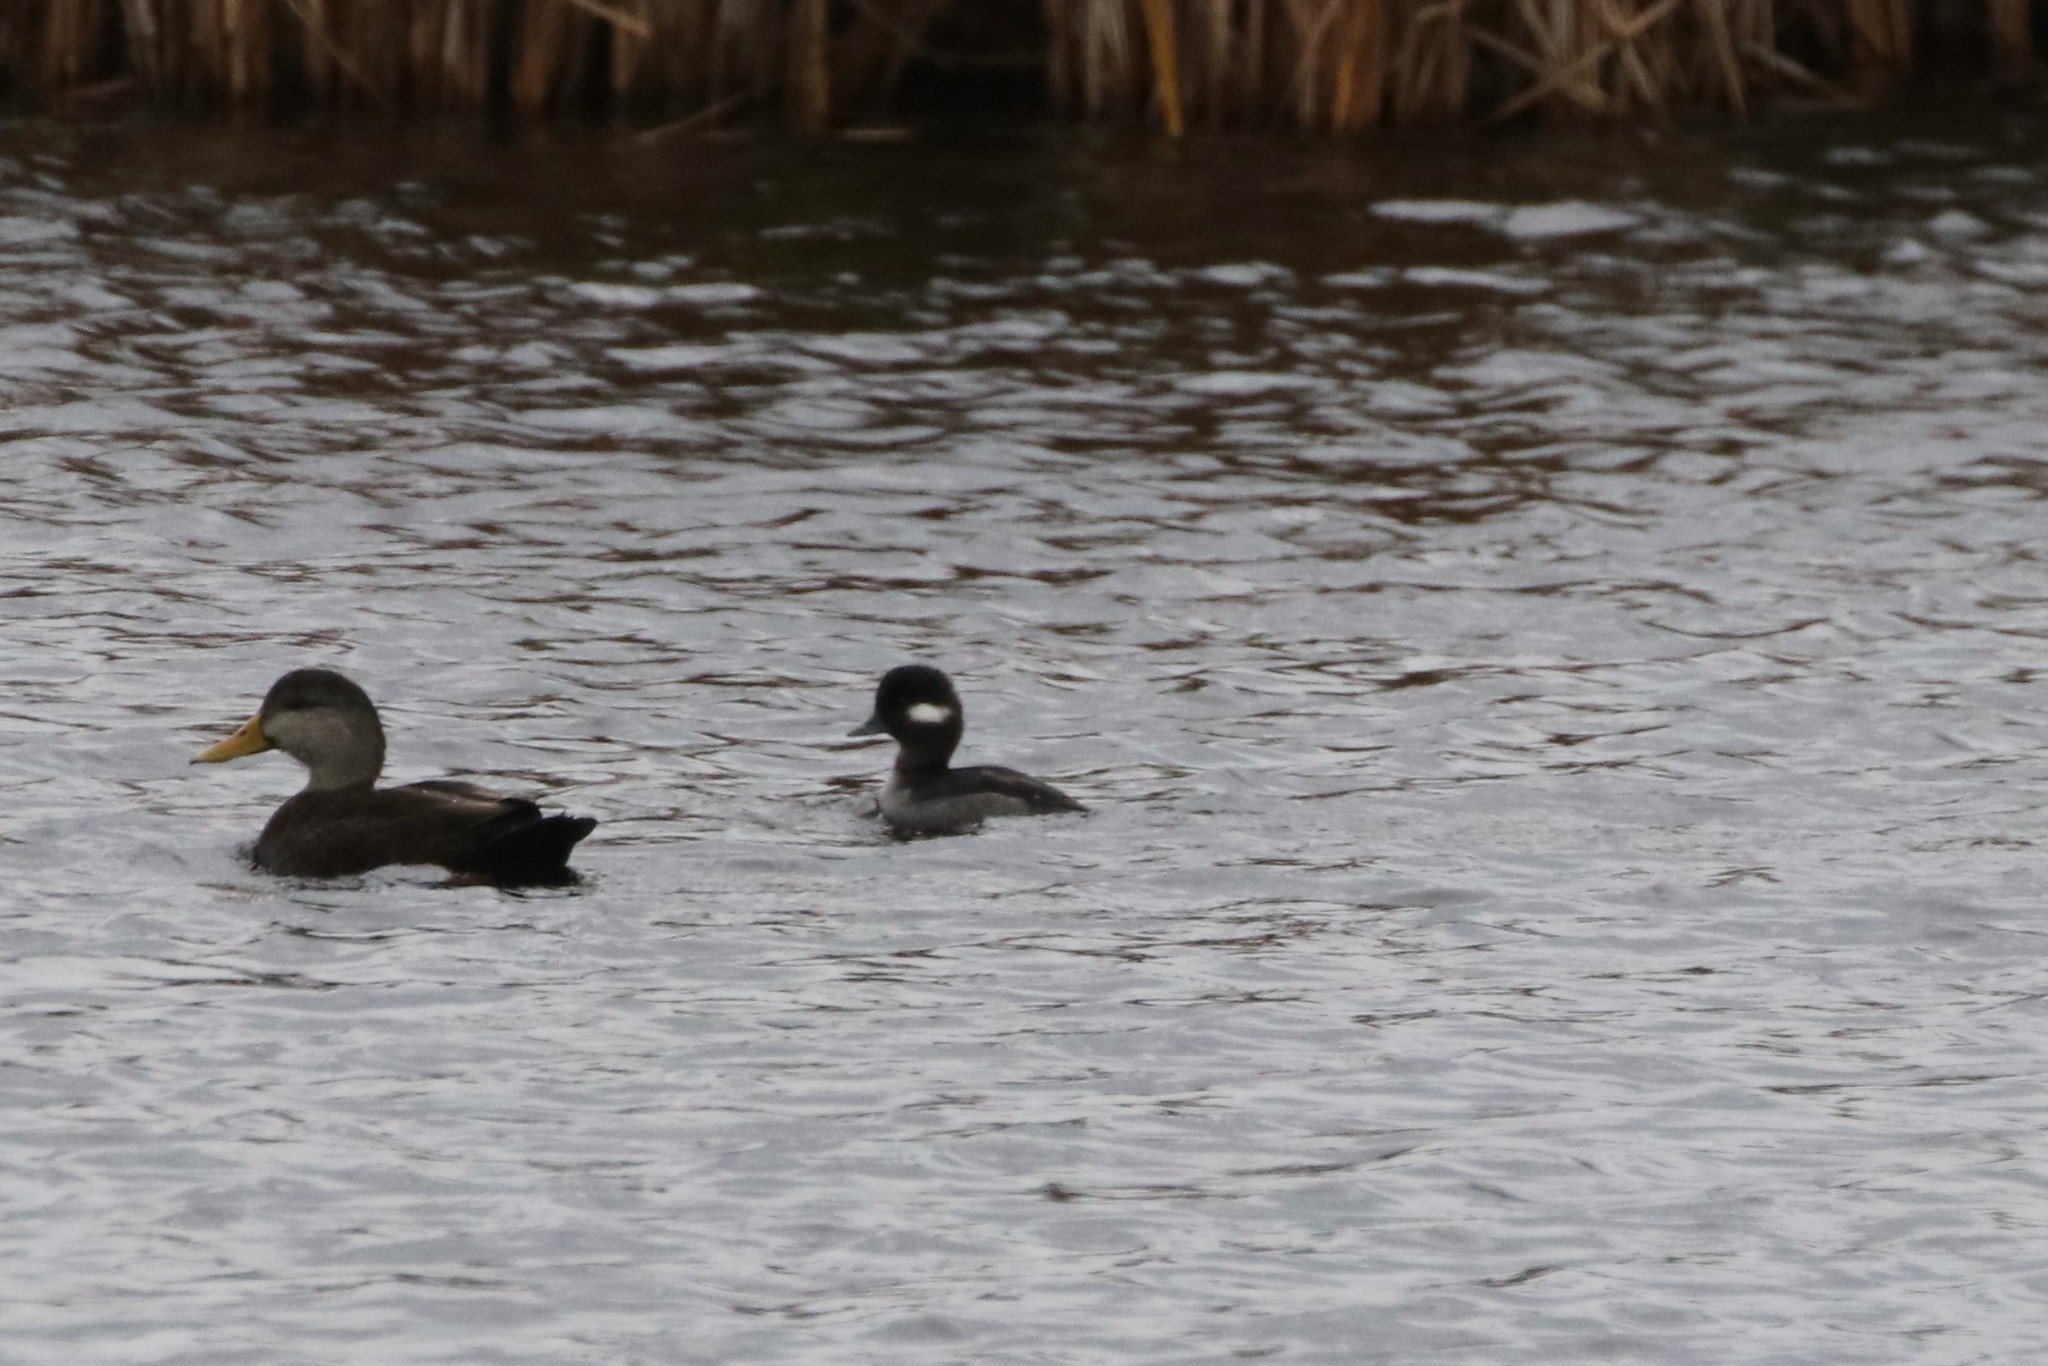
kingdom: Animalia
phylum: Chordata
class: Aves
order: Anseriformes
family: Anatidae
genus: Bucephala
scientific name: Bucephala albeola
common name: Bufflehead
